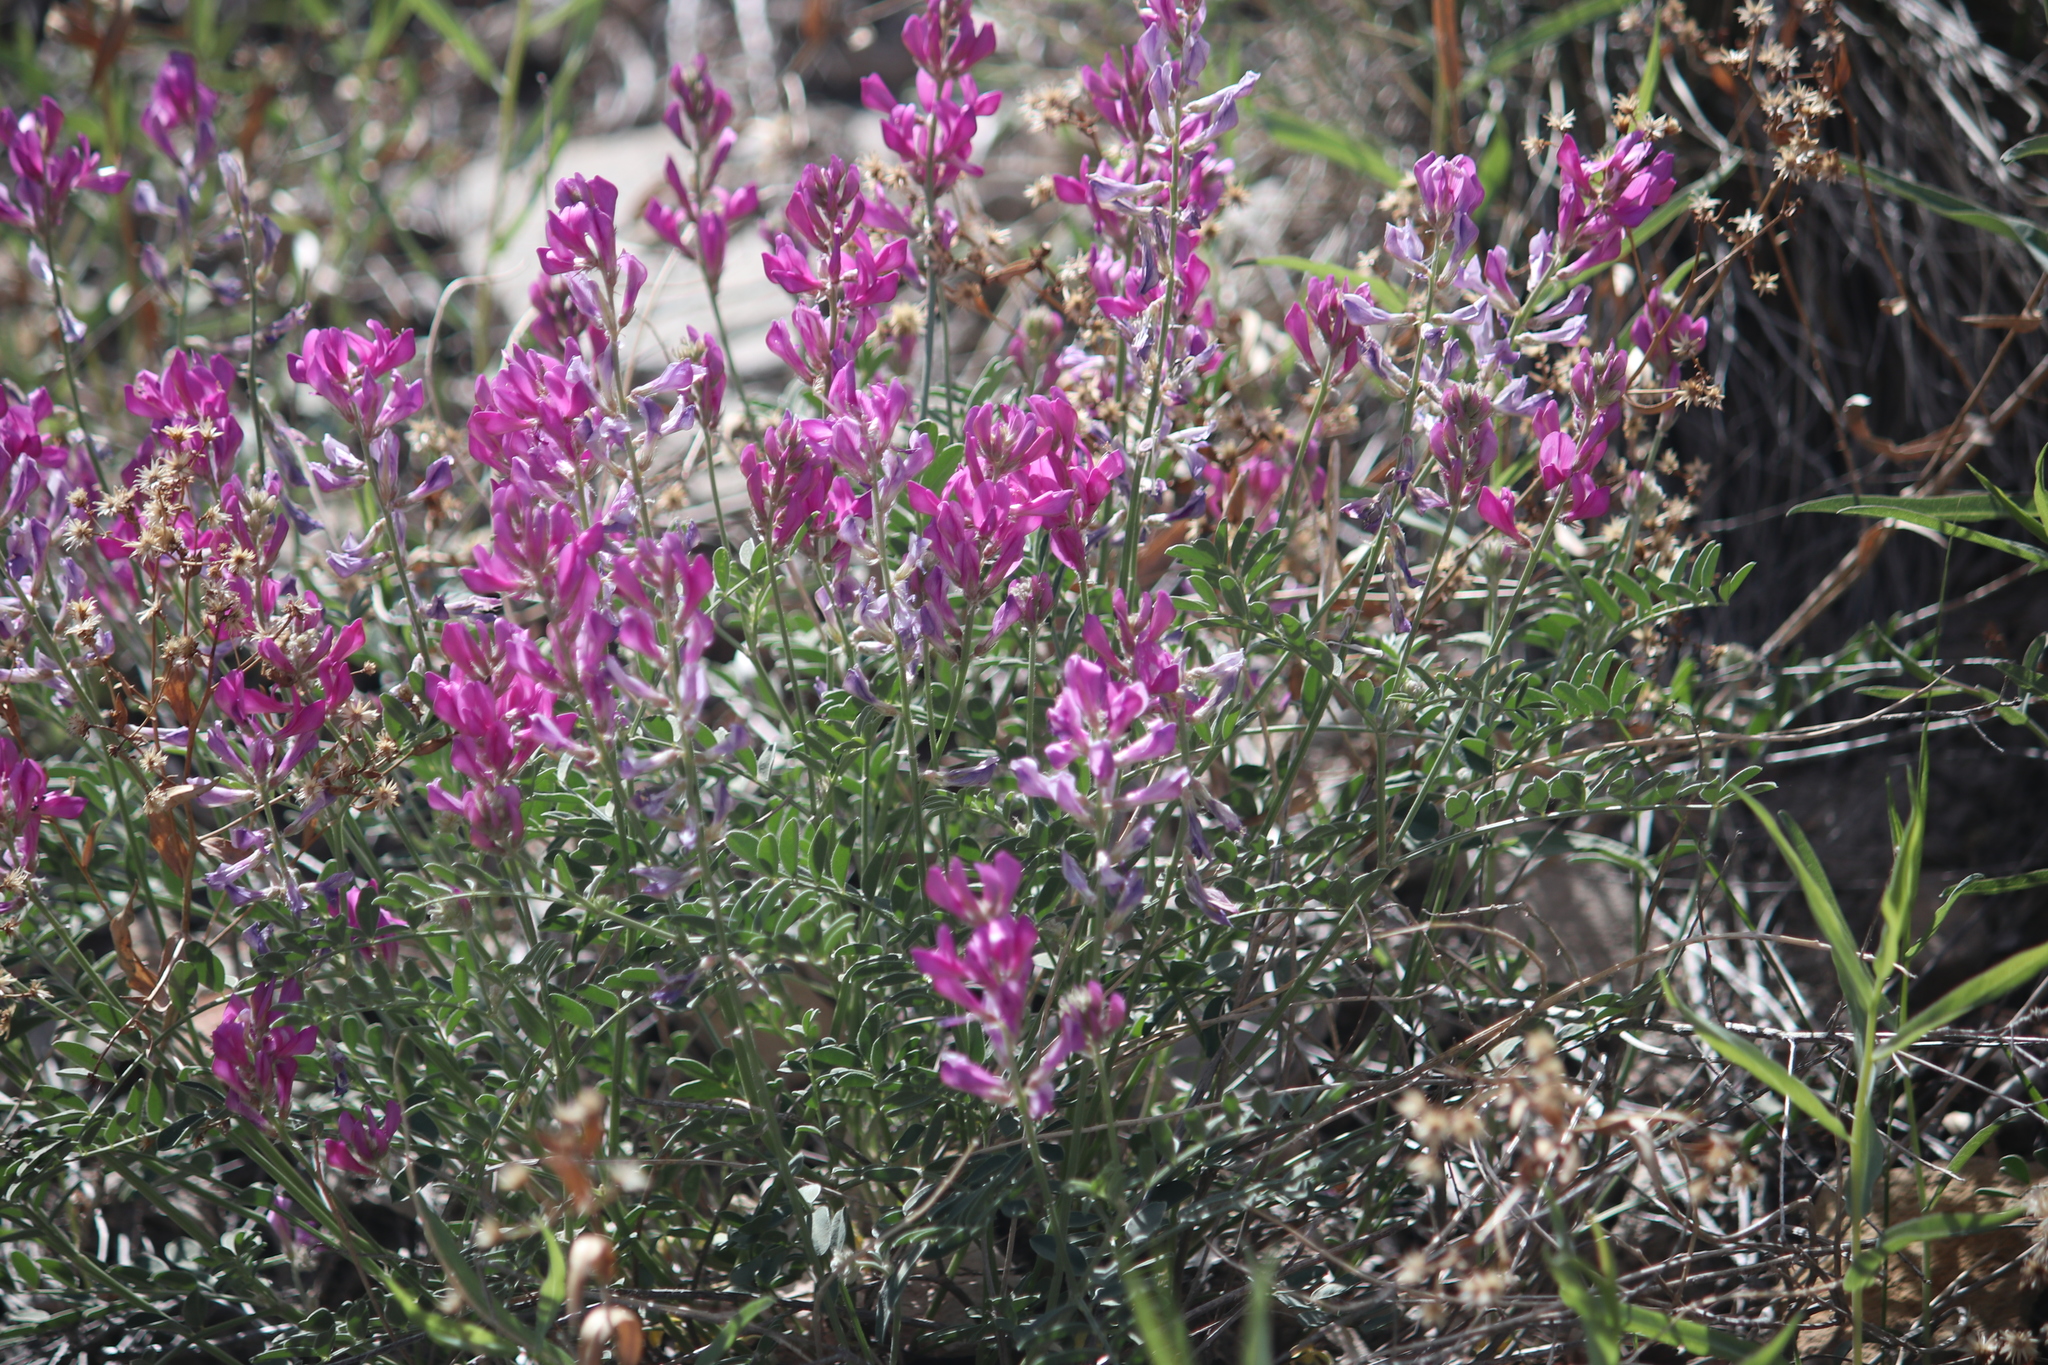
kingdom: Plantae
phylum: Tracheophyta
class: Magnoliopsida
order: Fabales
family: Fabaceae
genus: Hedysarum
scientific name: Hedysarum boreale
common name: Northern sweet-vetch
